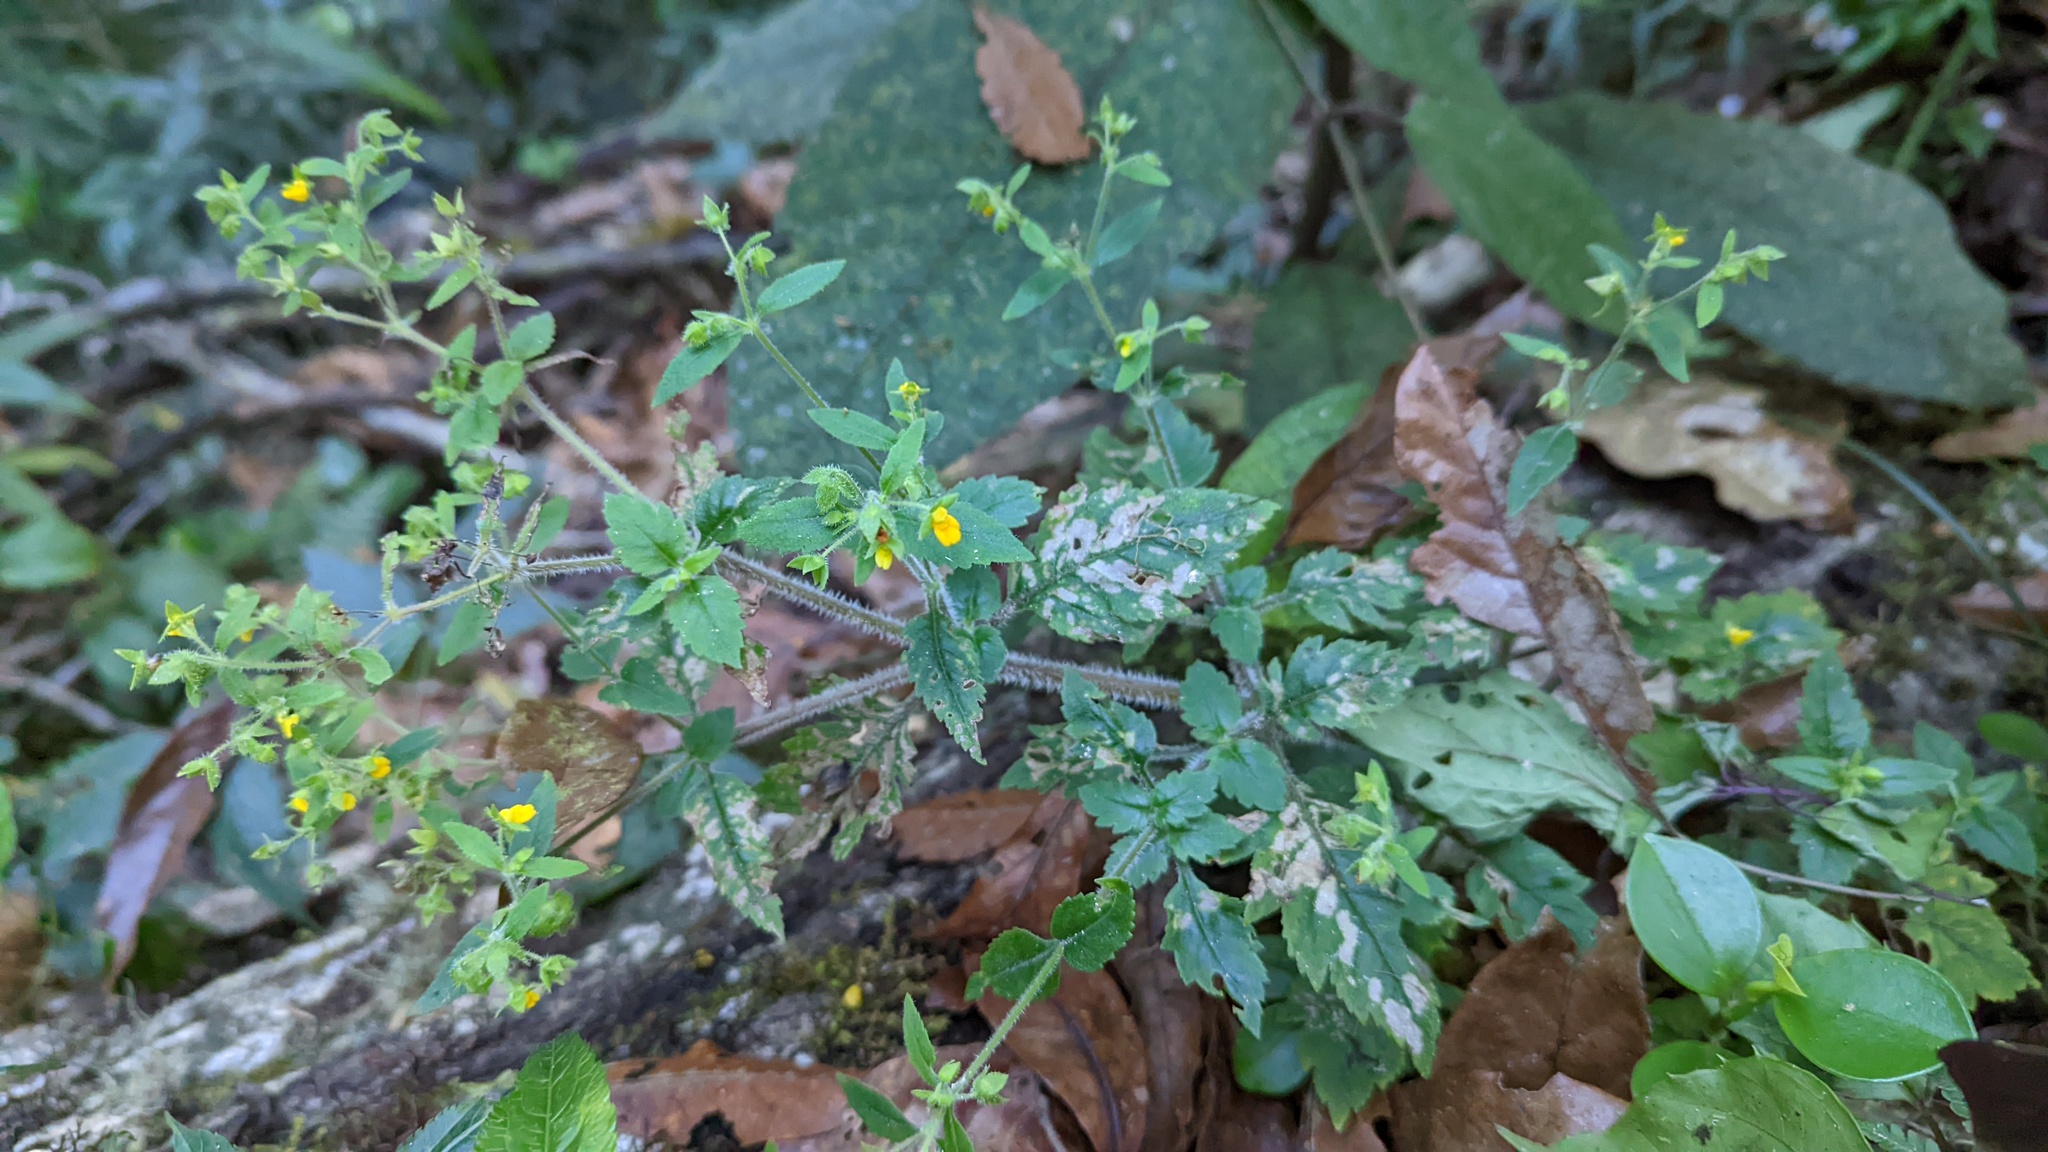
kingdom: Plantae
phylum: Tracheophyta
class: Magnoliopsida
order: Lamiales
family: Calceolariaceae
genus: Calceolaria
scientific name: Calceolaria mexicana
